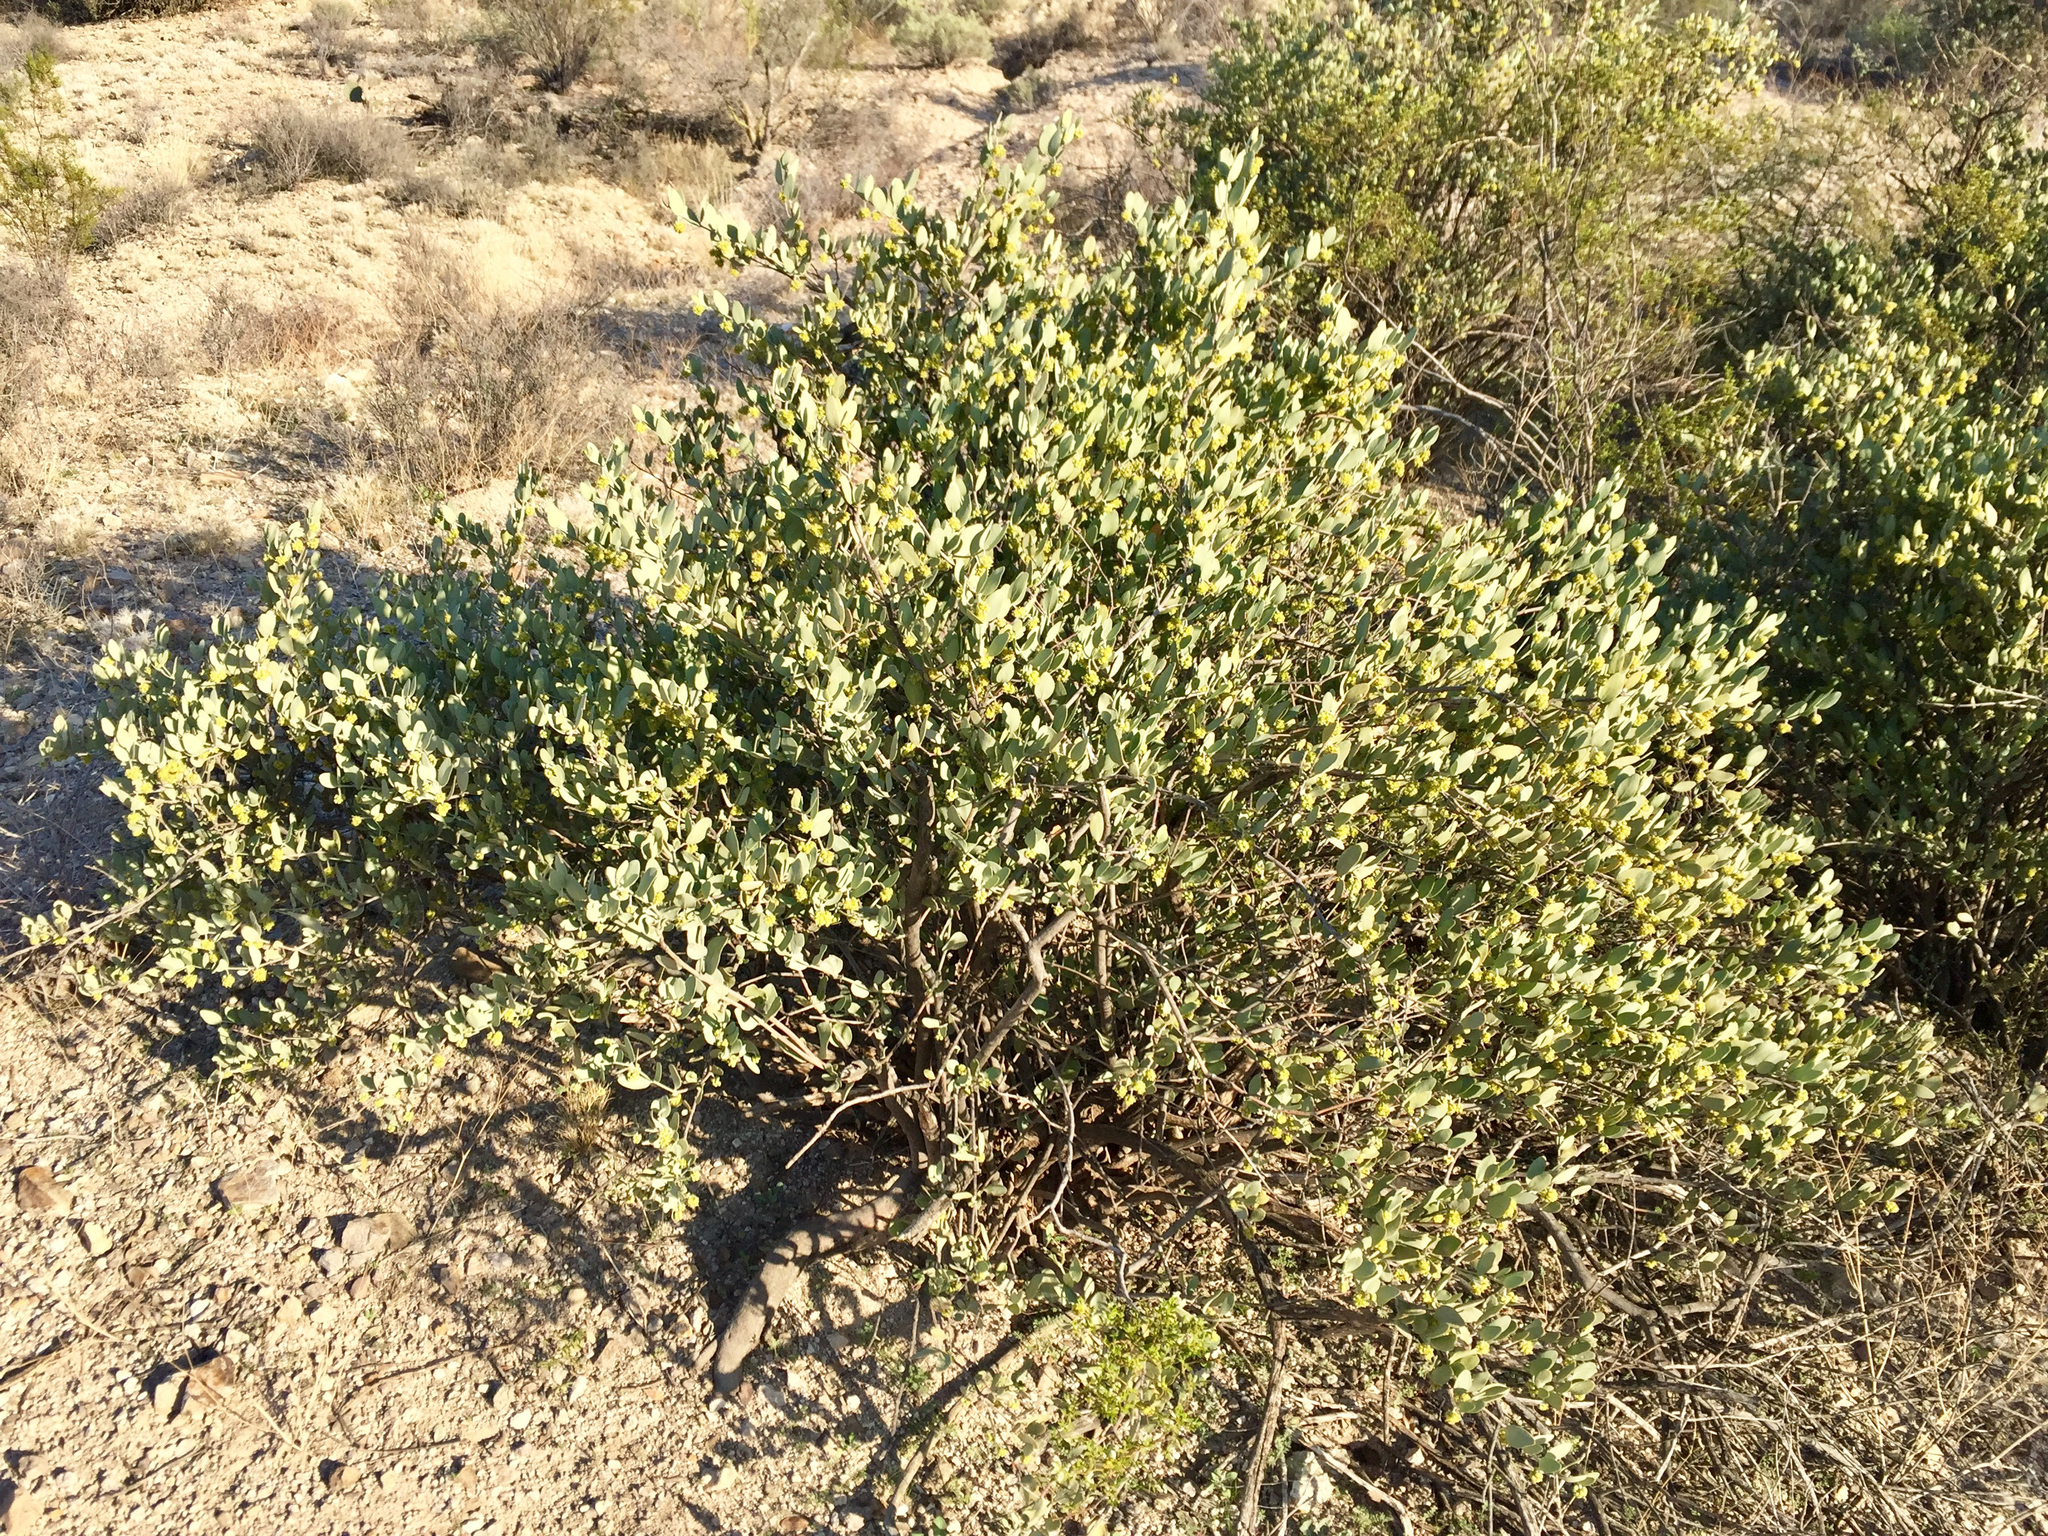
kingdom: Plantae
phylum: Tracheophyta
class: Magnoliopsida
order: Caryophyllales
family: Simmondsiaceae
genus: Simmondsia
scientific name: Simmondsia chinensis
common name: Jojoba
